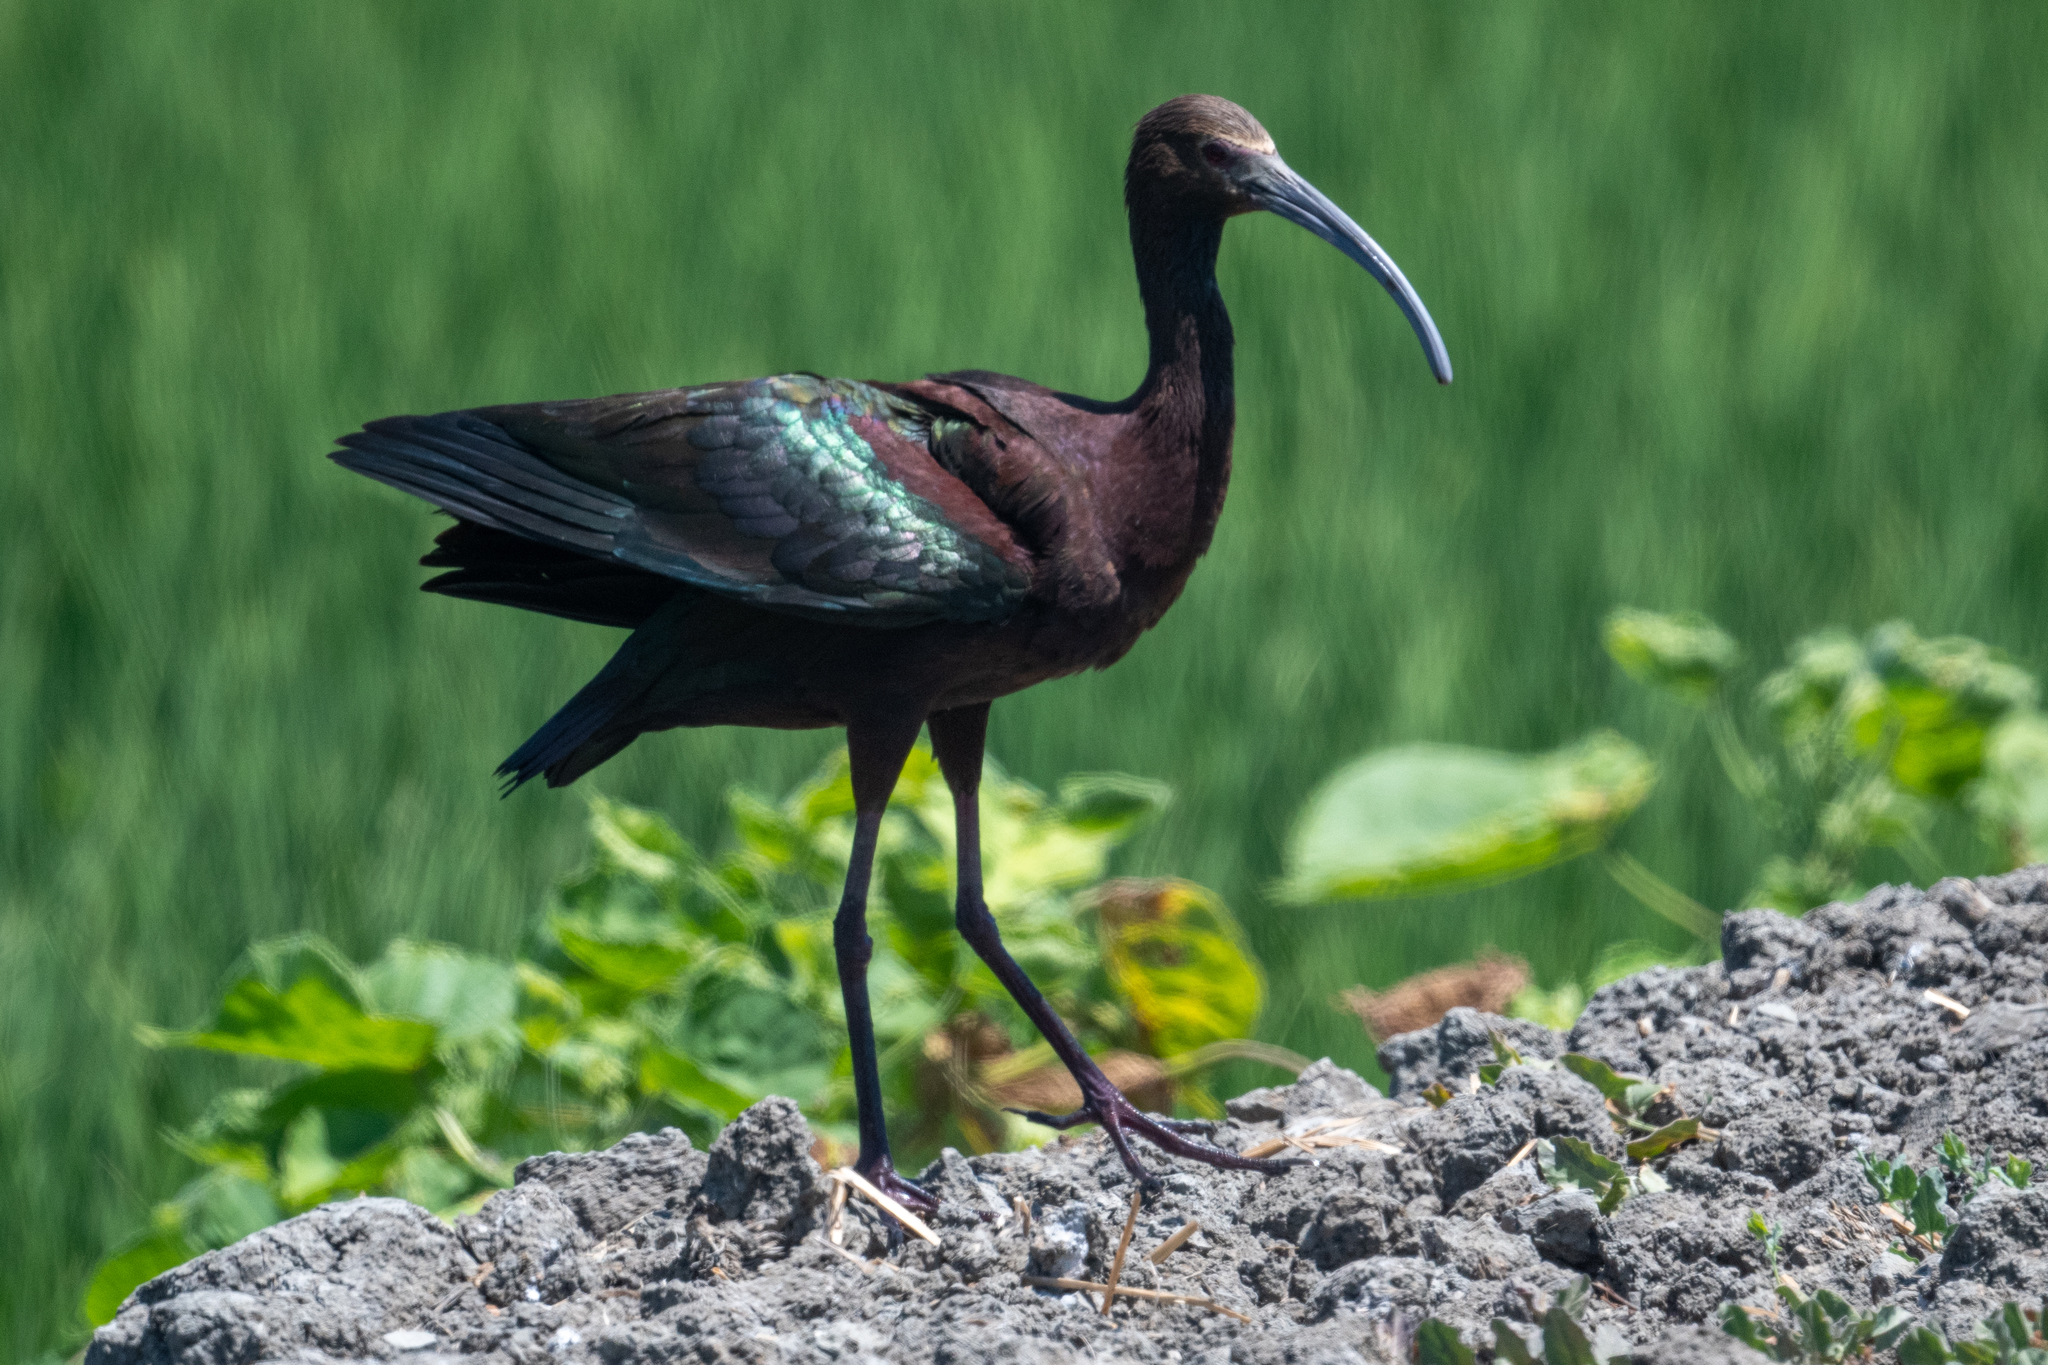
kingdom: Animalia
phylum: Chordata
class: Aves
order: Pelecaniformes
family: Threskiornithidae
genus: Plegadis
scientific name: Plegadis chihi
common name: White-faced ibis
